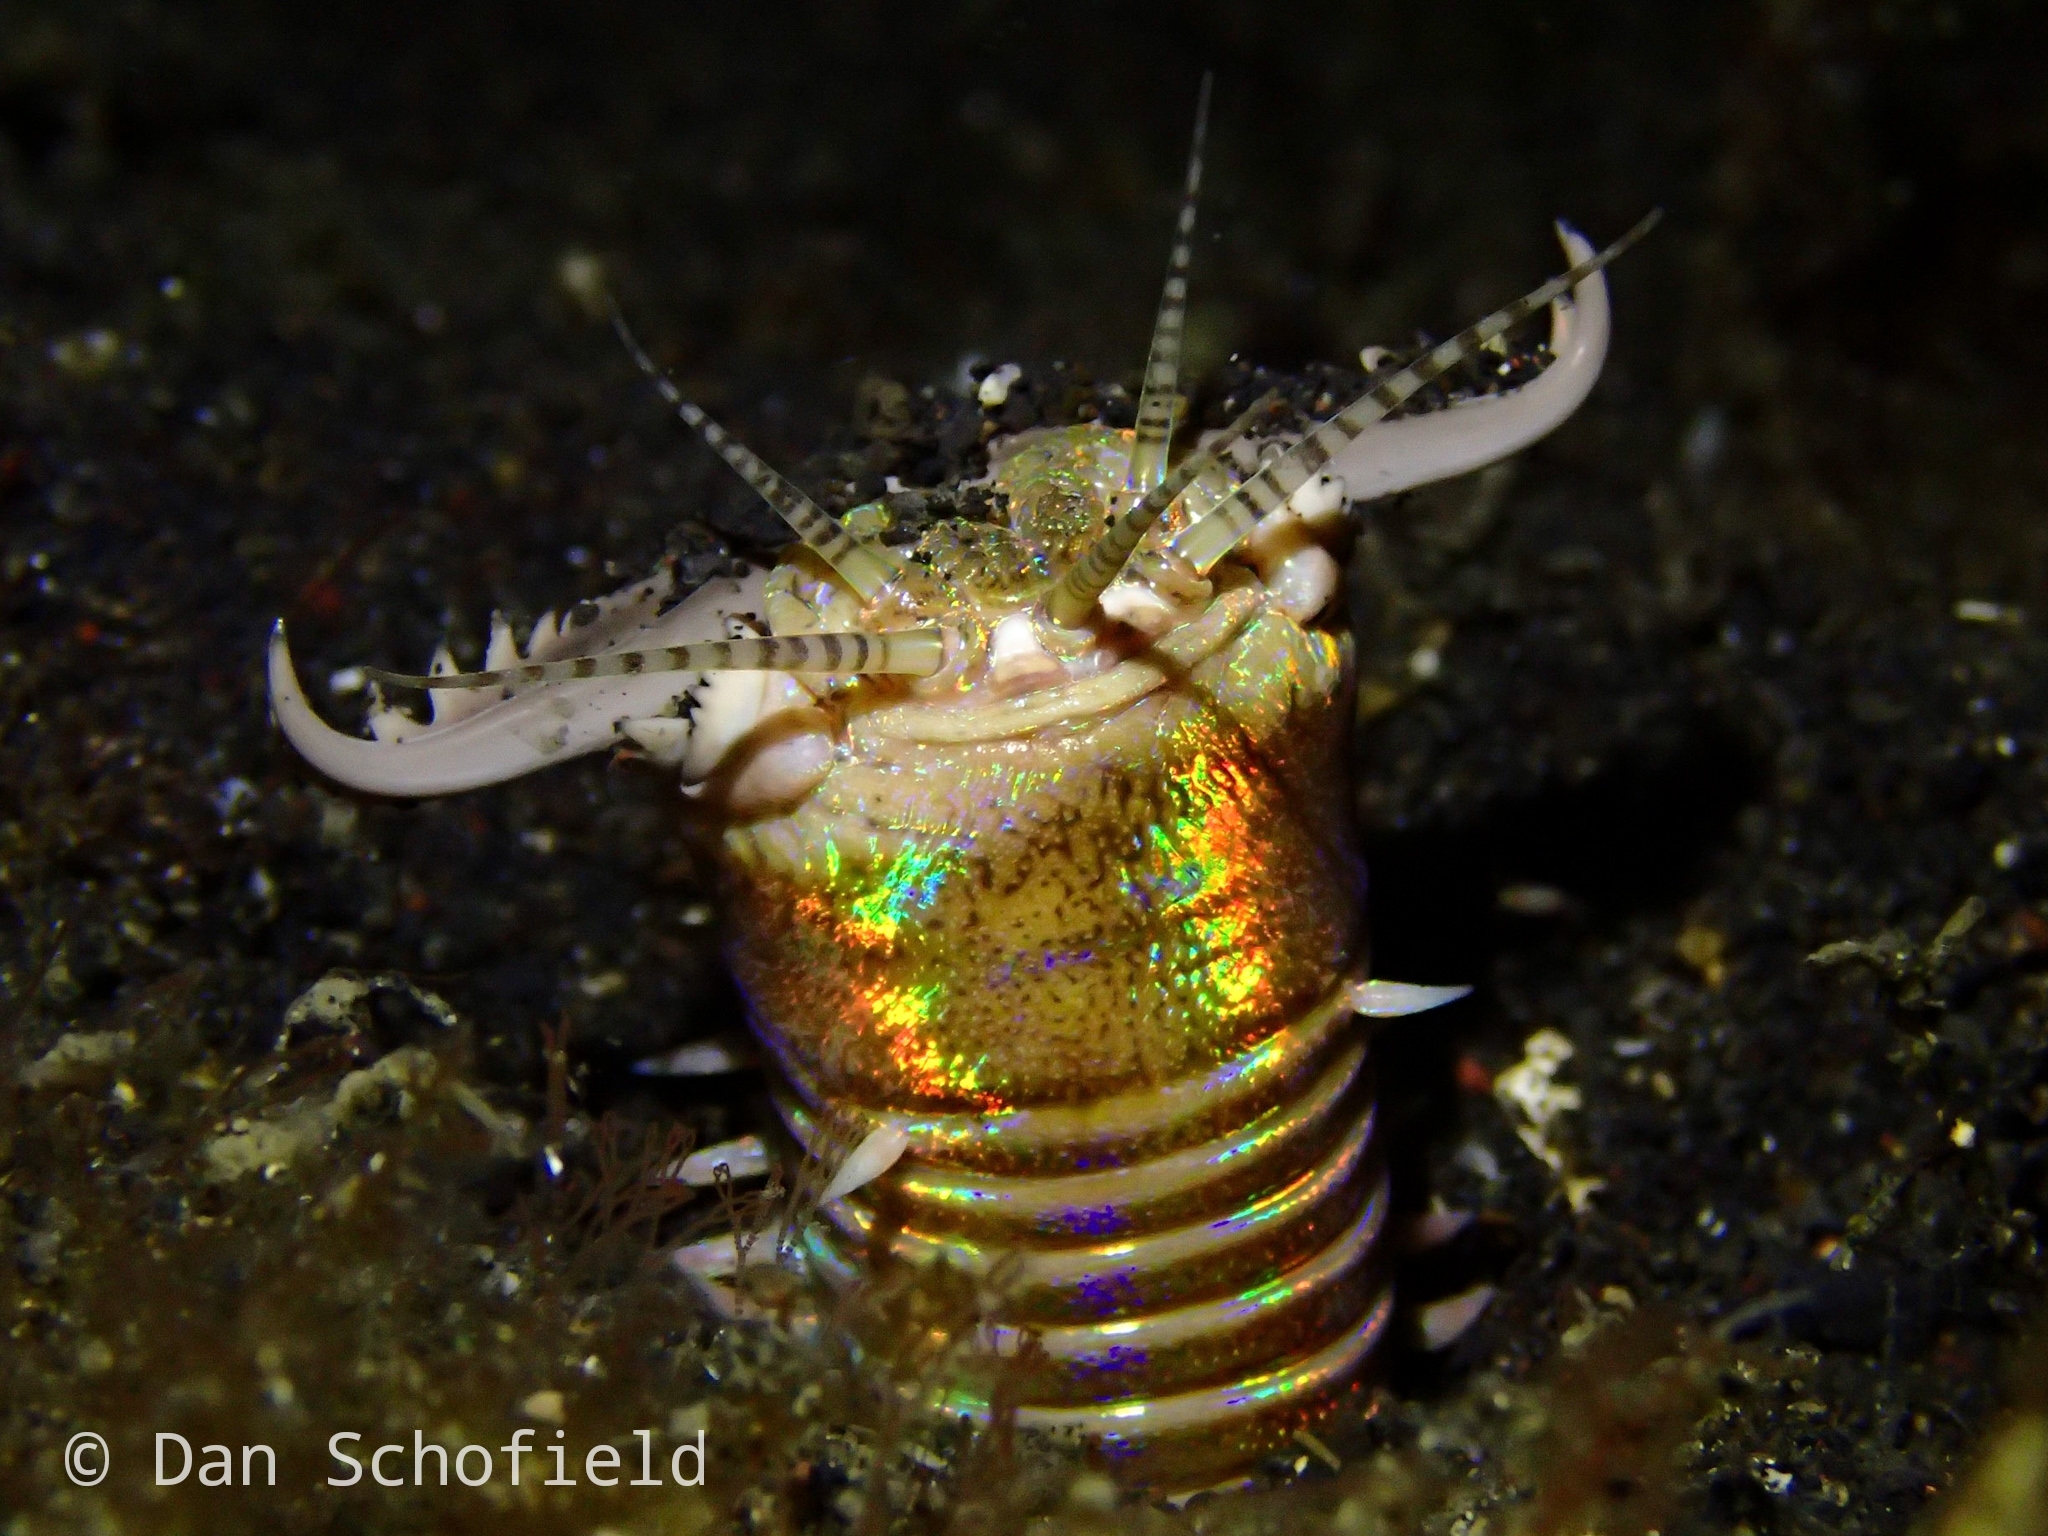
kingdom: Animalia
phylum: Annelida
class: Polychaeta
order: Eunicida
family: Eunicidae
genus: Eunice
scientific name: Eunice aphroditois
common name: Wonder-worm
